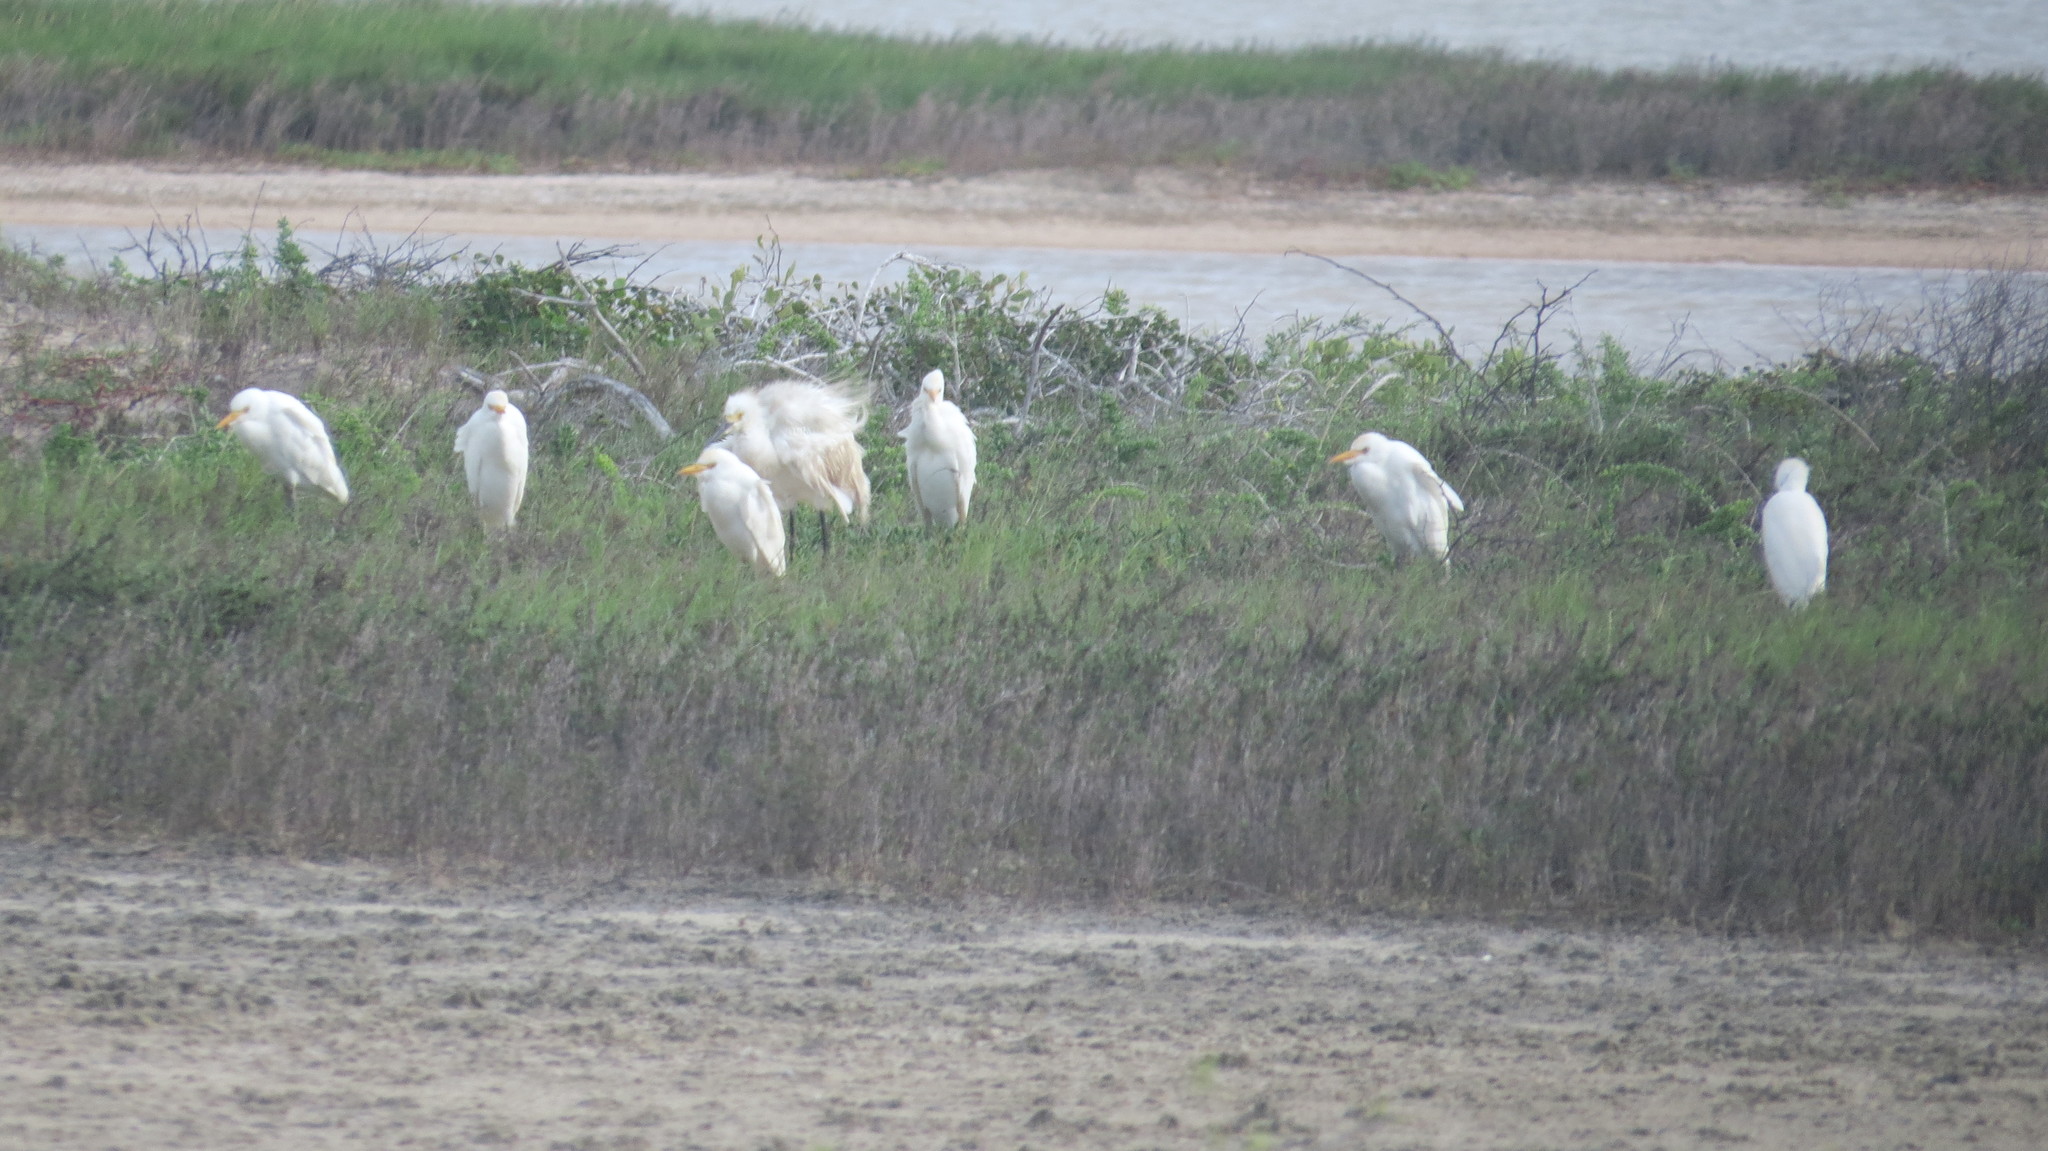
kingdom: Animalia
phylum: Chordata
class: Aves
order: Pelecaniformes
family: Ardeidae
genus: Bubulcus
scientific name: Bubulcus ibis
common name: Cattle egret
